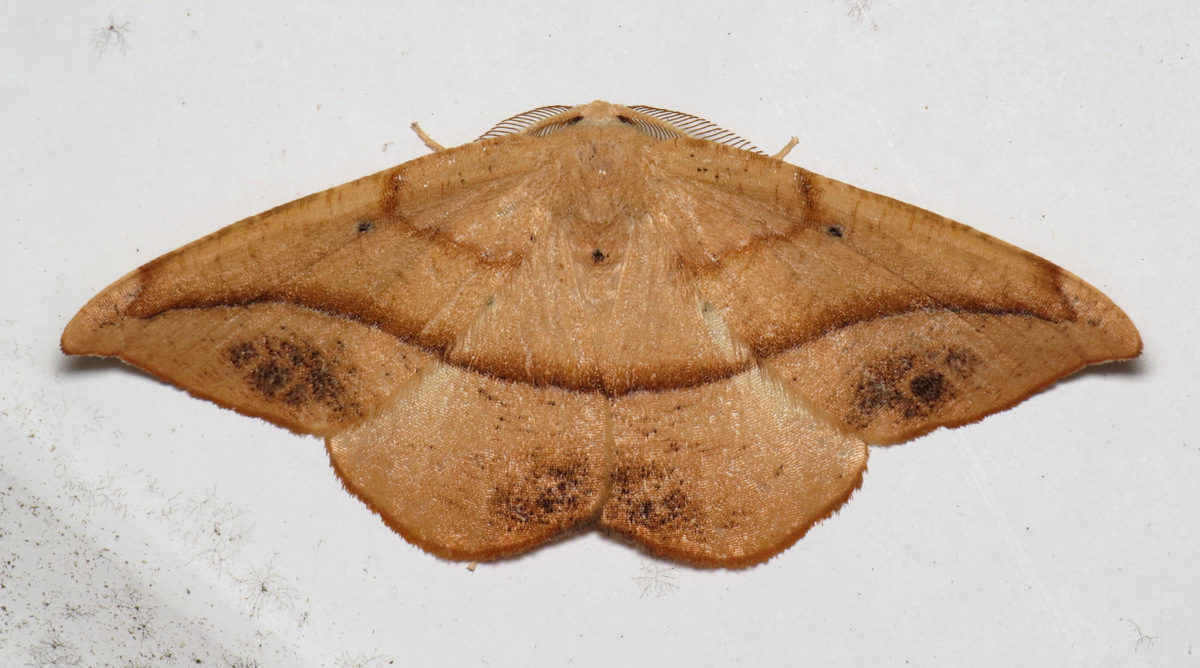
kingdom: Animalia
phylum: Arthropoda
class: Insecta
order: Lepidoptera
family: Geometridae
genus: Patalene
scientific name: Patalene olyzonaria
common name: Juniper geometer moth
